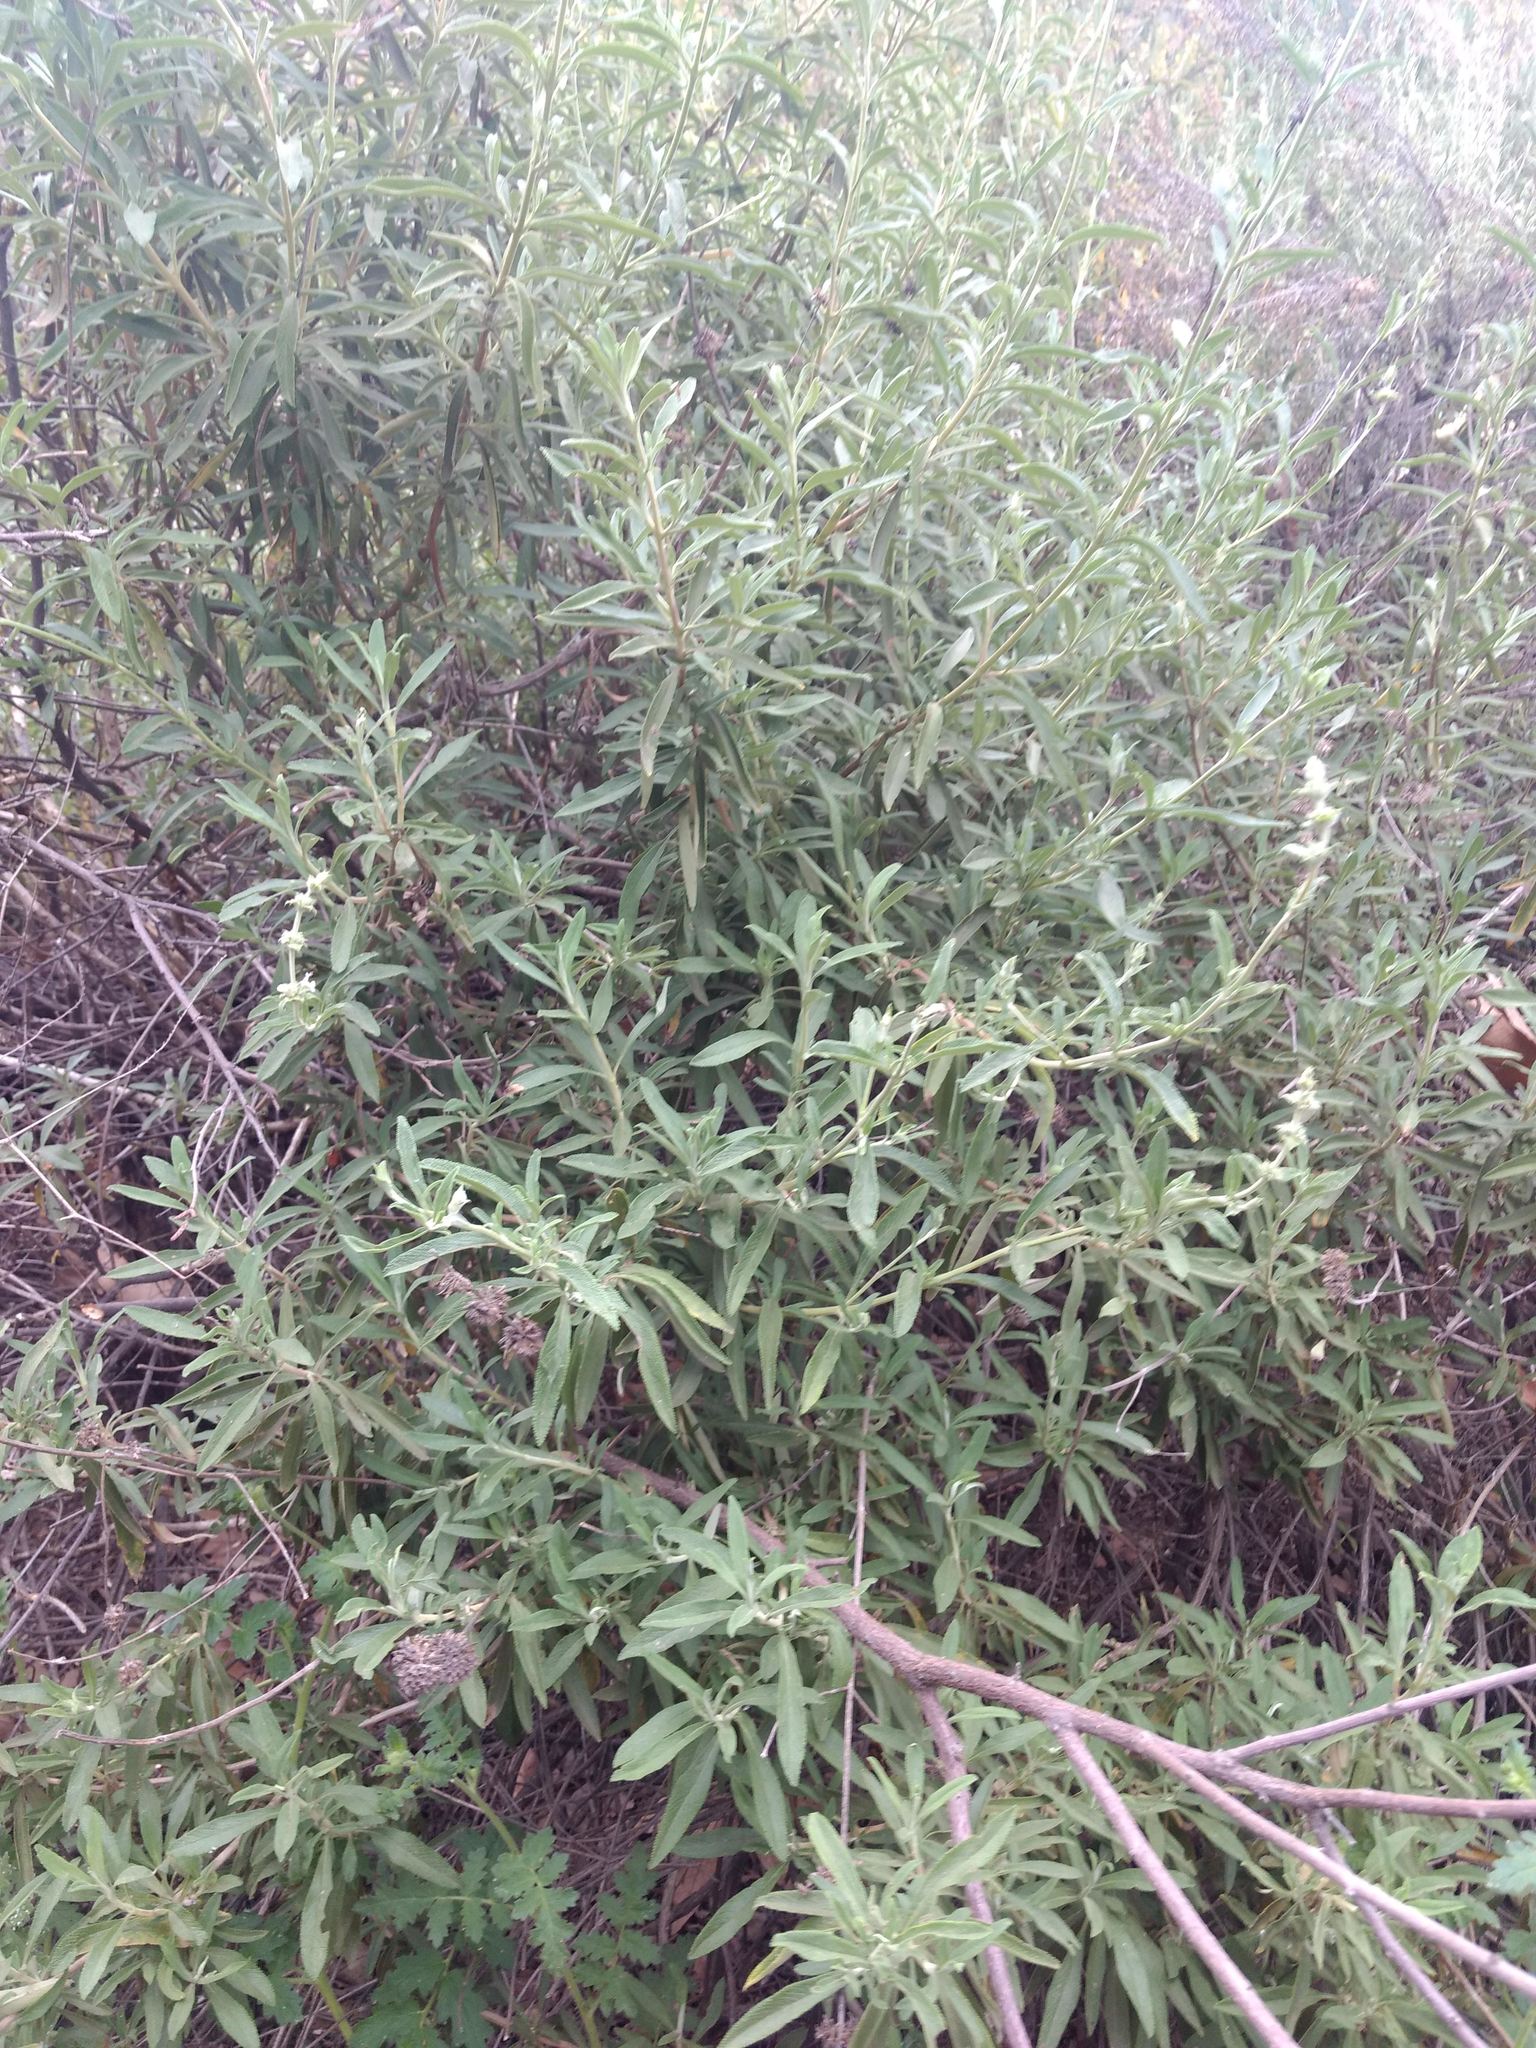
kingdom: Plantae
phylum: Tracheophyta
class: Magnoliopsida
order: Lamiales
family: Lamiaceae
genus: Salvia
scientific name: Salvia mellifera
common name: Black sage
